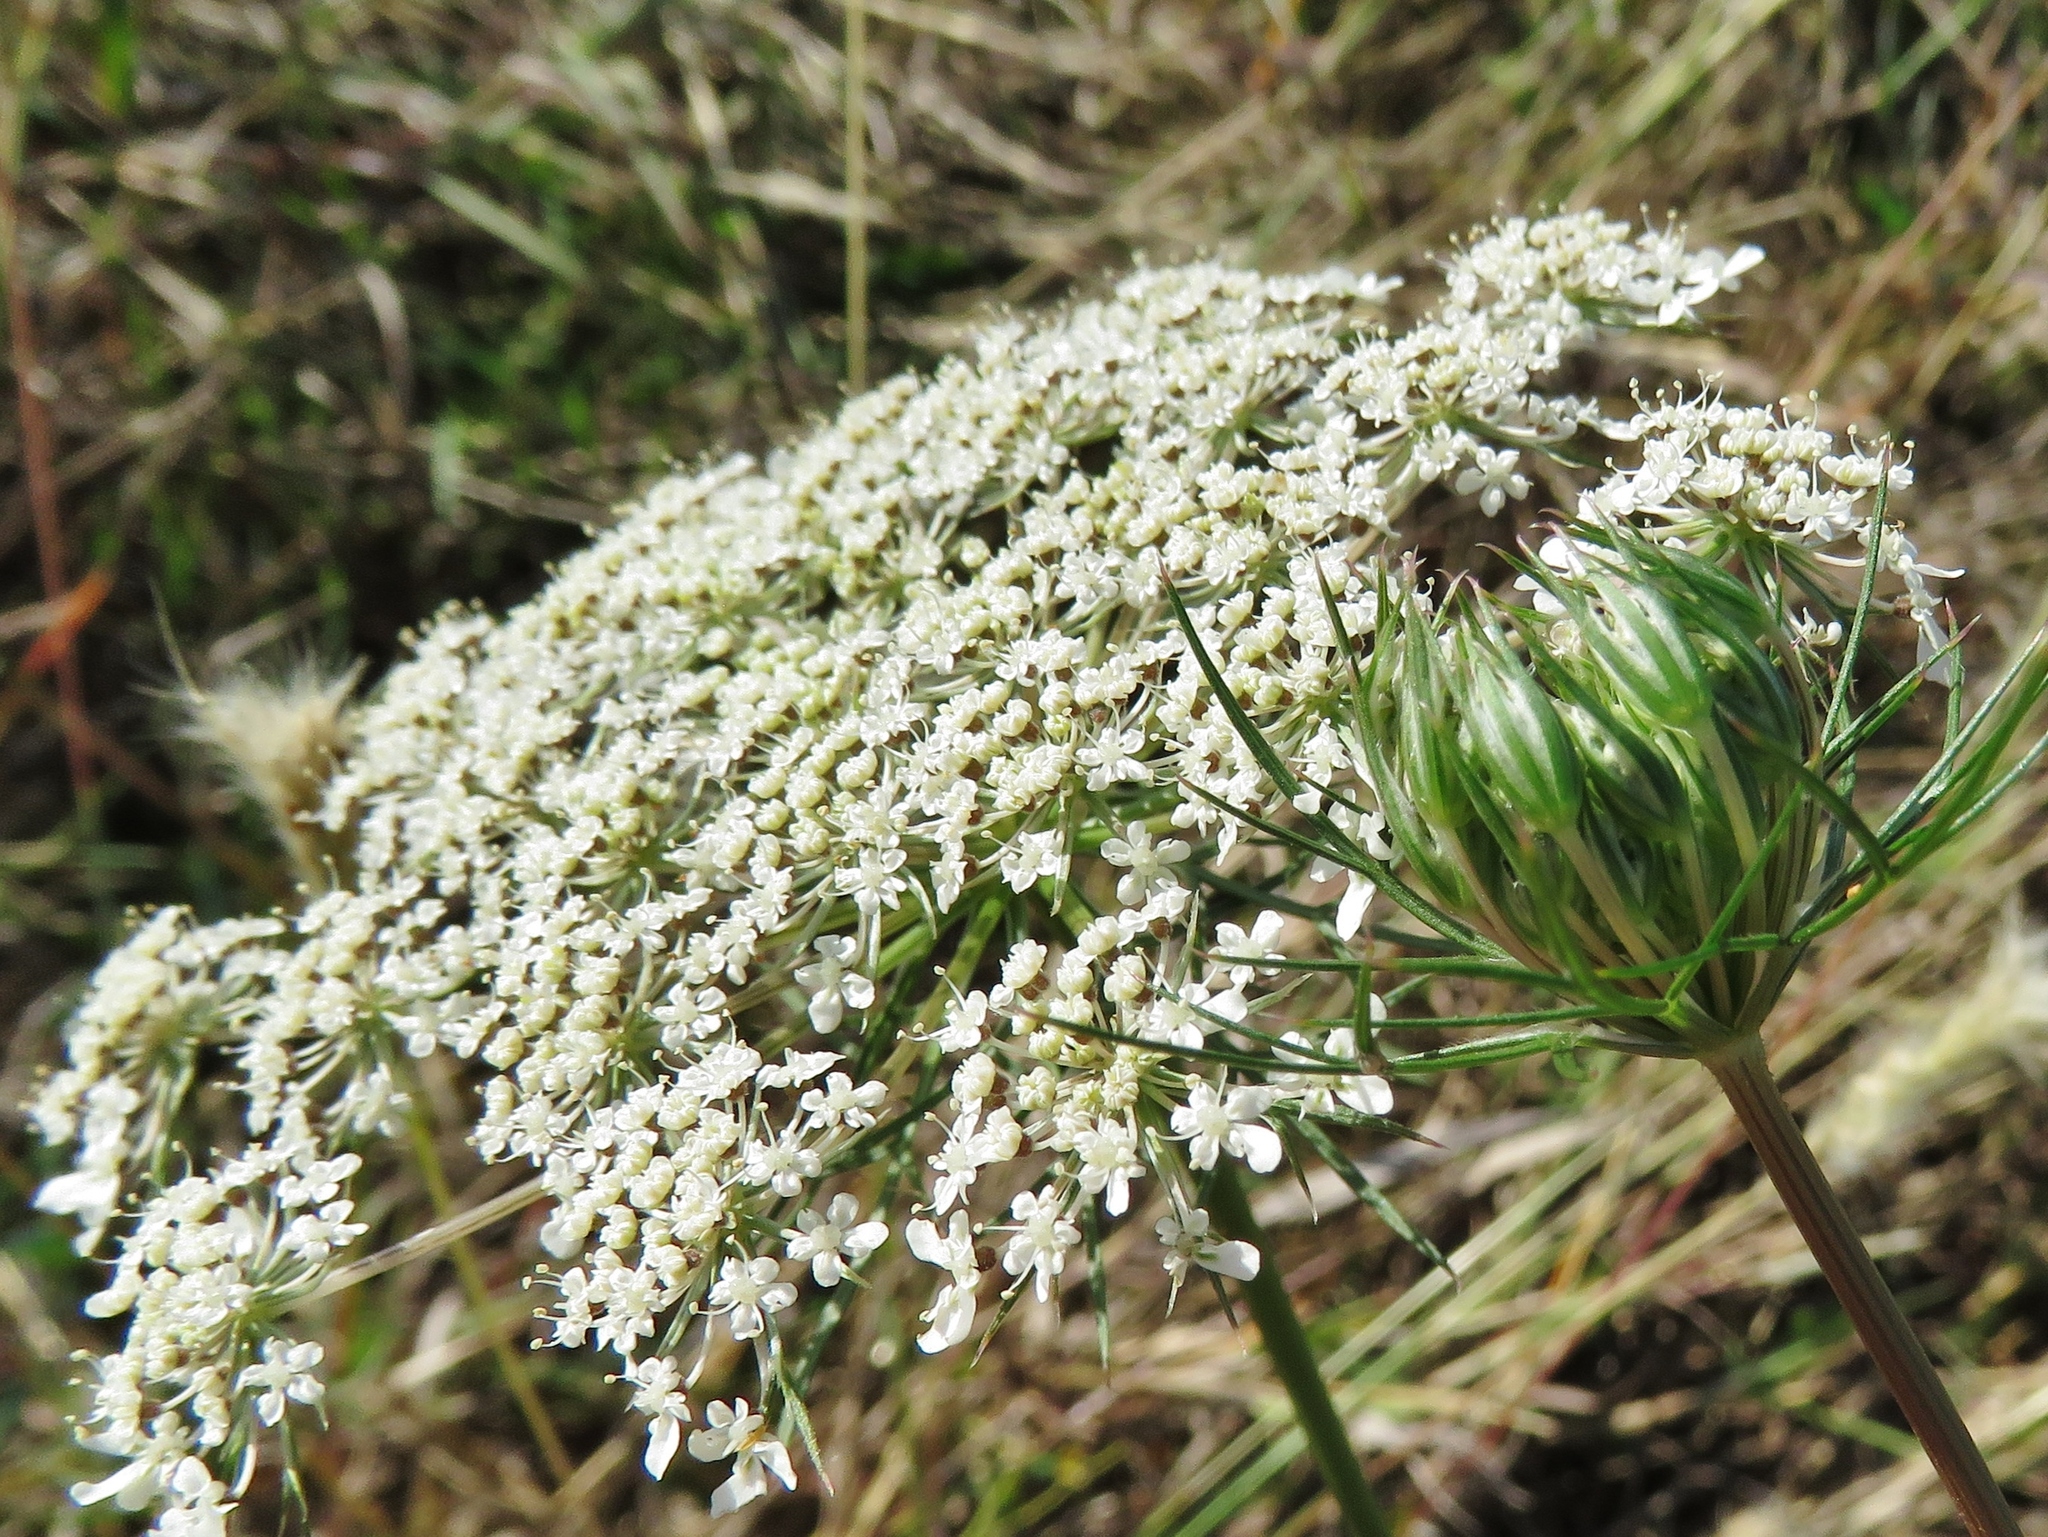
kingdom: Plantae
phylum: Tracheophyta
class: Magnoliopsida
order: Apiales
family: Apiaceae
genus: Daucus
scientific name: Daucus carota
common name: Wild carrot
